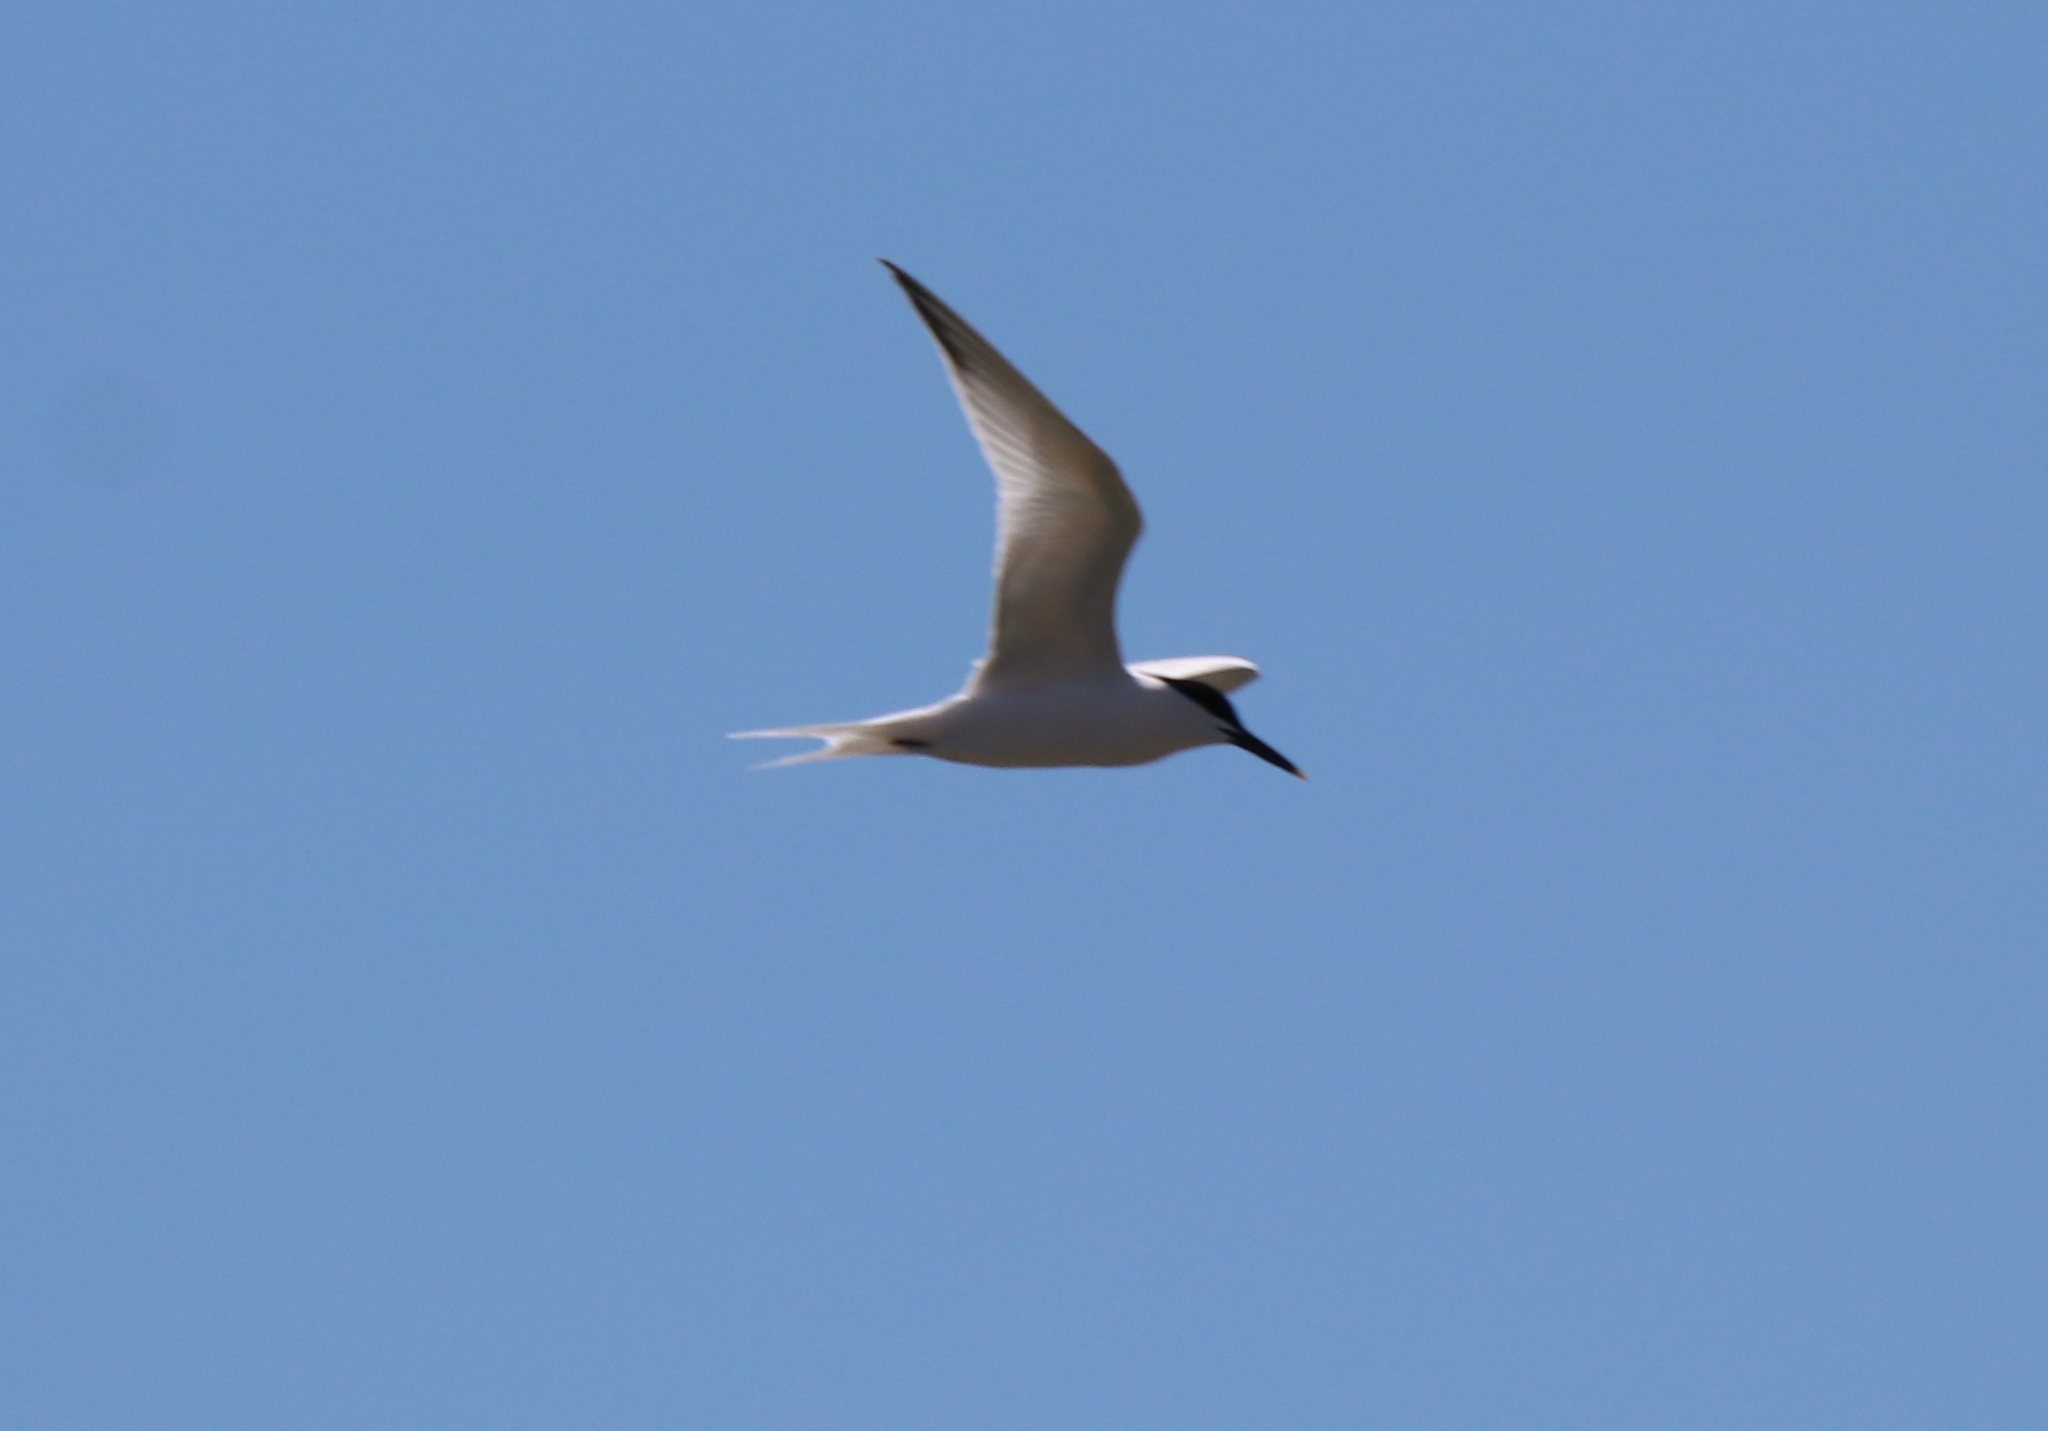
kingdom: Animalia
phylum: Chordata
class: Aves
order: Charadriiformes
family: Laridae
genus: Thalasseus
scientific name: Thalasseus sandvicensis
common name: Sandwich tern
